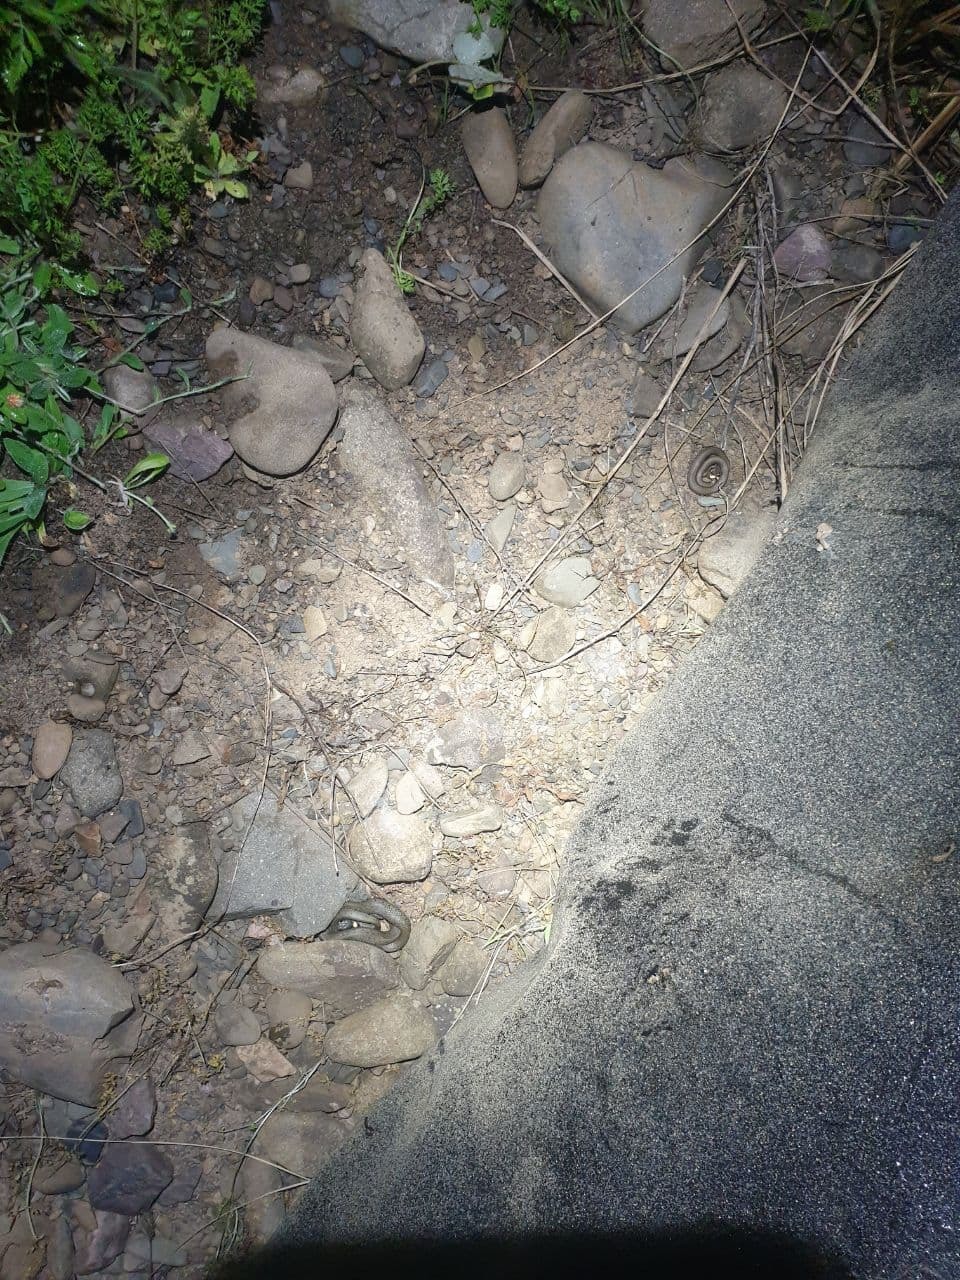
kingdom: Animalia
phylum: Chordata
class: Squamata
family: Colubridae
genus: Natrix
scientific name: Natrix natrix
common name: Grass snake
